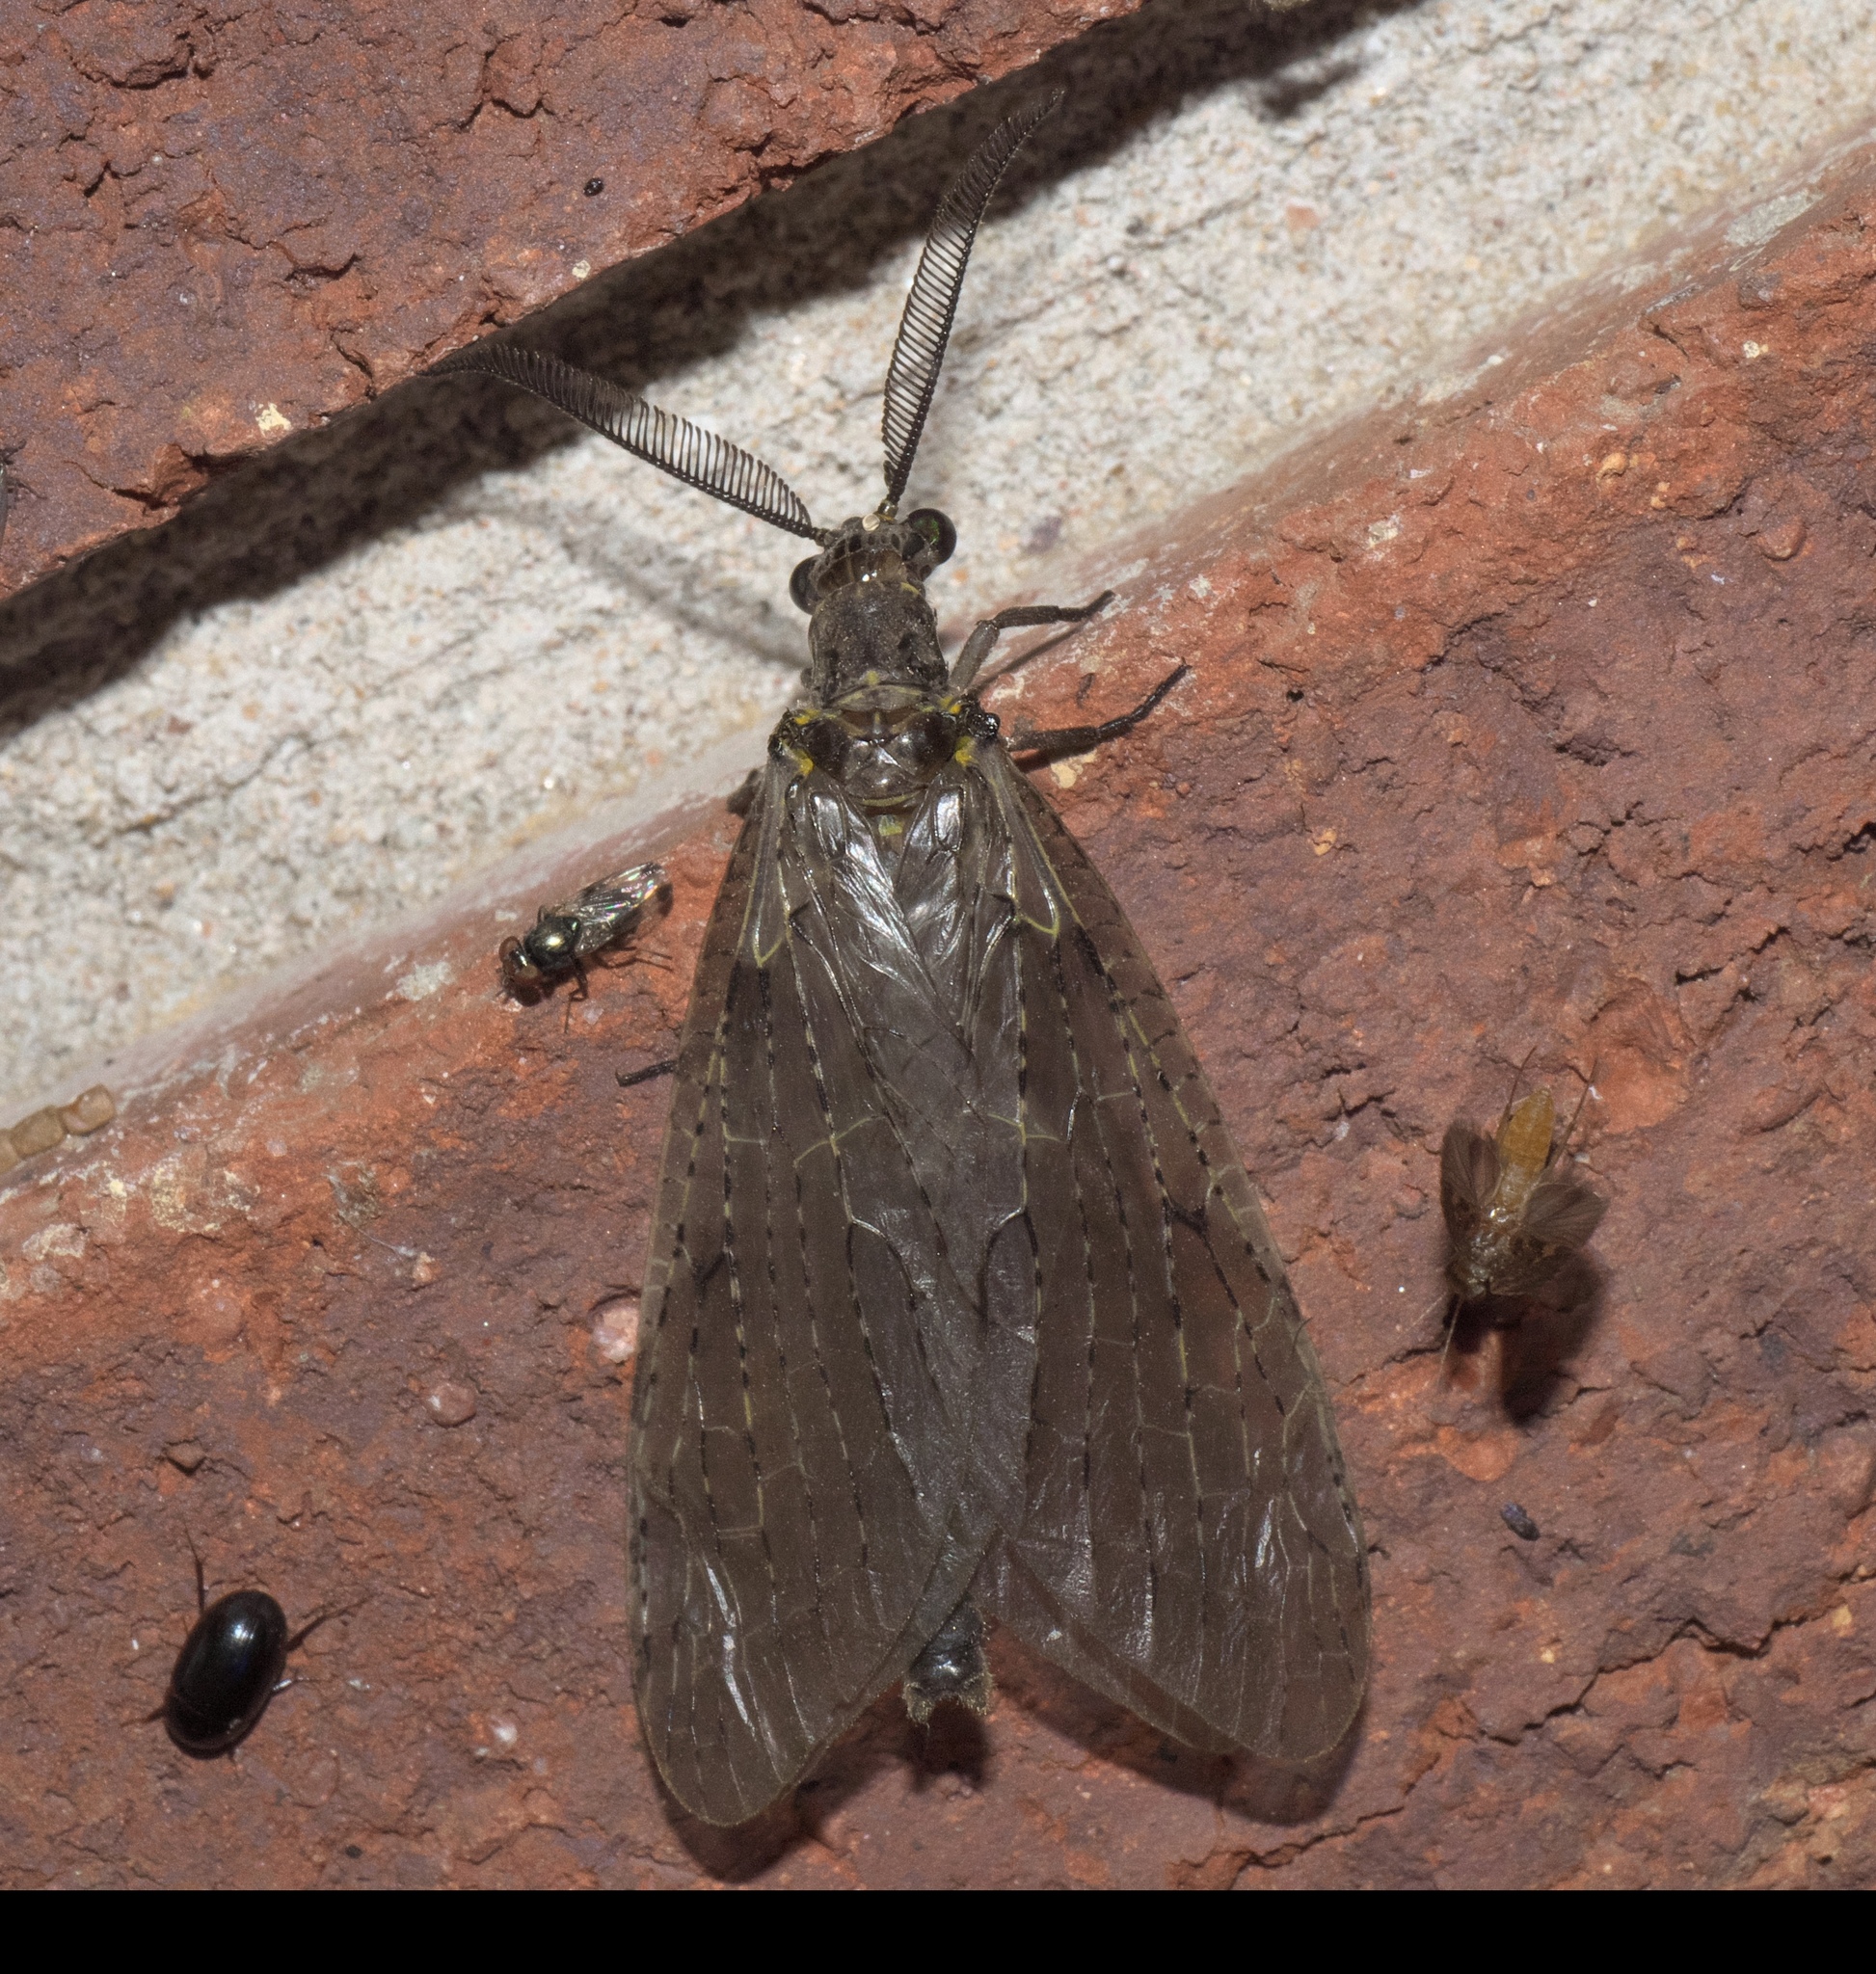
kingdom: Animalia
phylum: Arthropoda
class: Insecta
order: Megaloptera
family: Corydalidae
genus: Chauliodes
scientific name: Chauliodes rastricornis
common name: Spring fishfly
